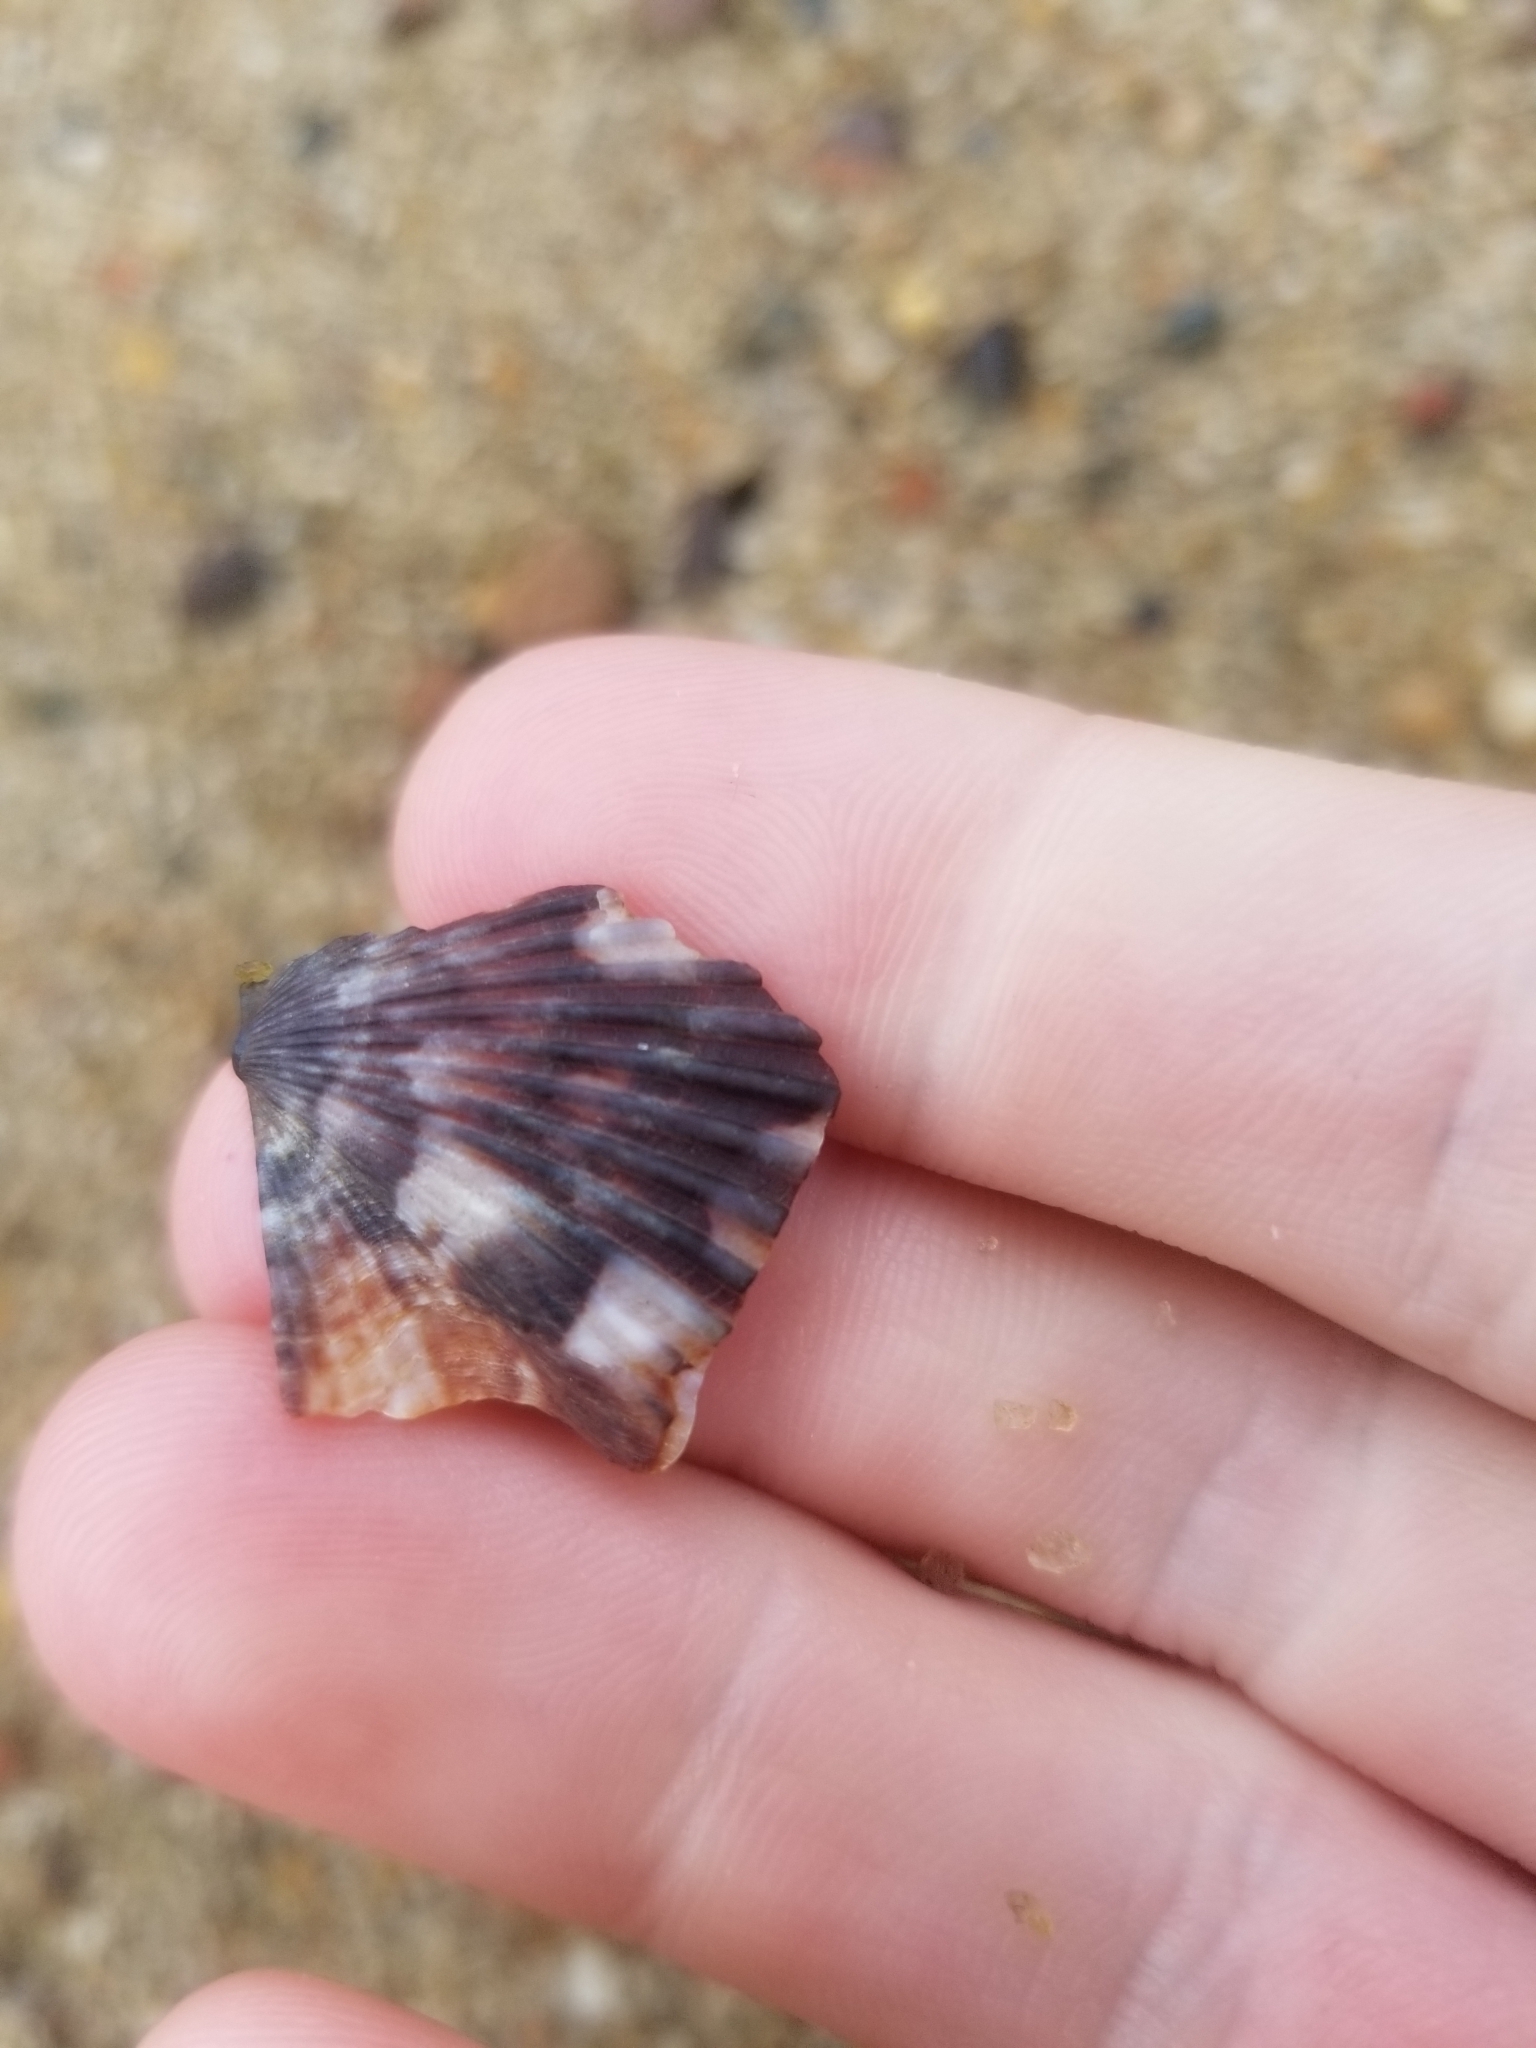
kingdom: Animalia
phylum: Mollusca
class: Bivalvia
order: Pectinida
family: Pectinidae
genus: Argopecten
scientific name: Argopecten irradians
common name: Atlantic bay scallop
